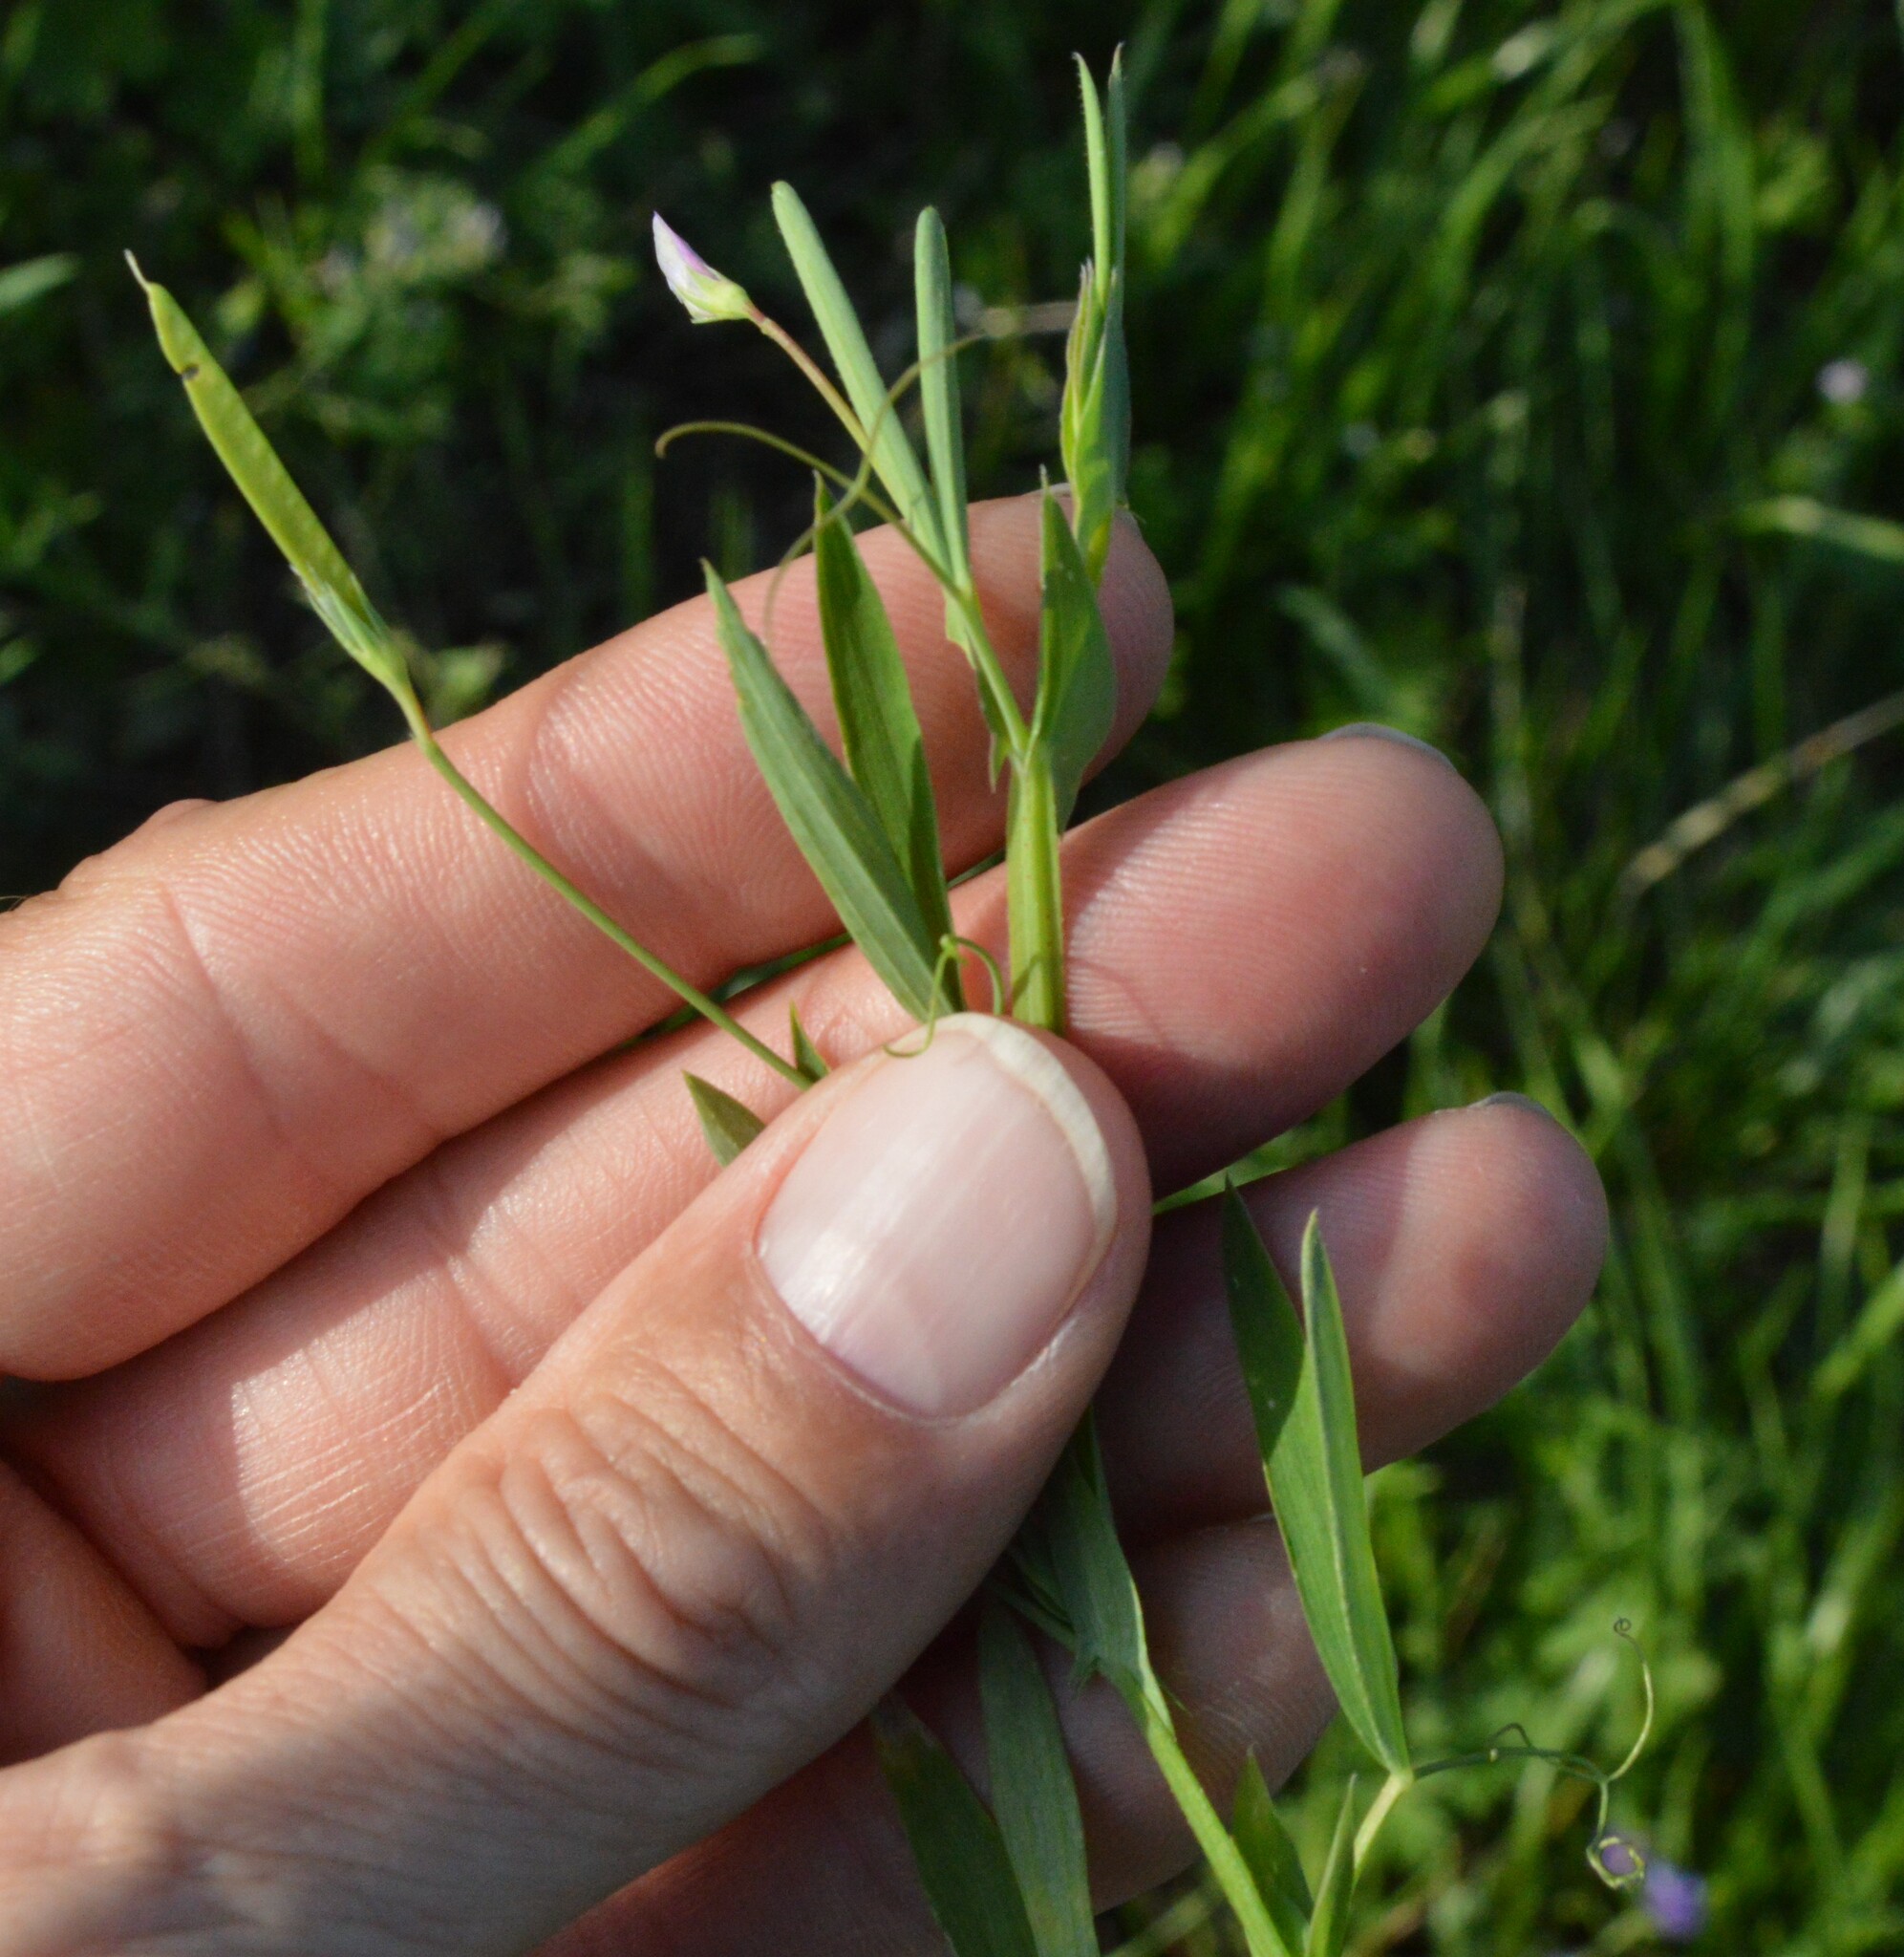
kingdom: Plantae
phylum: Tracheophyta
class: Magnoliopsida
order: Fabales
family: Fabaceae
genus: Lathyrus
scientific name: Lathyrus pusillus
